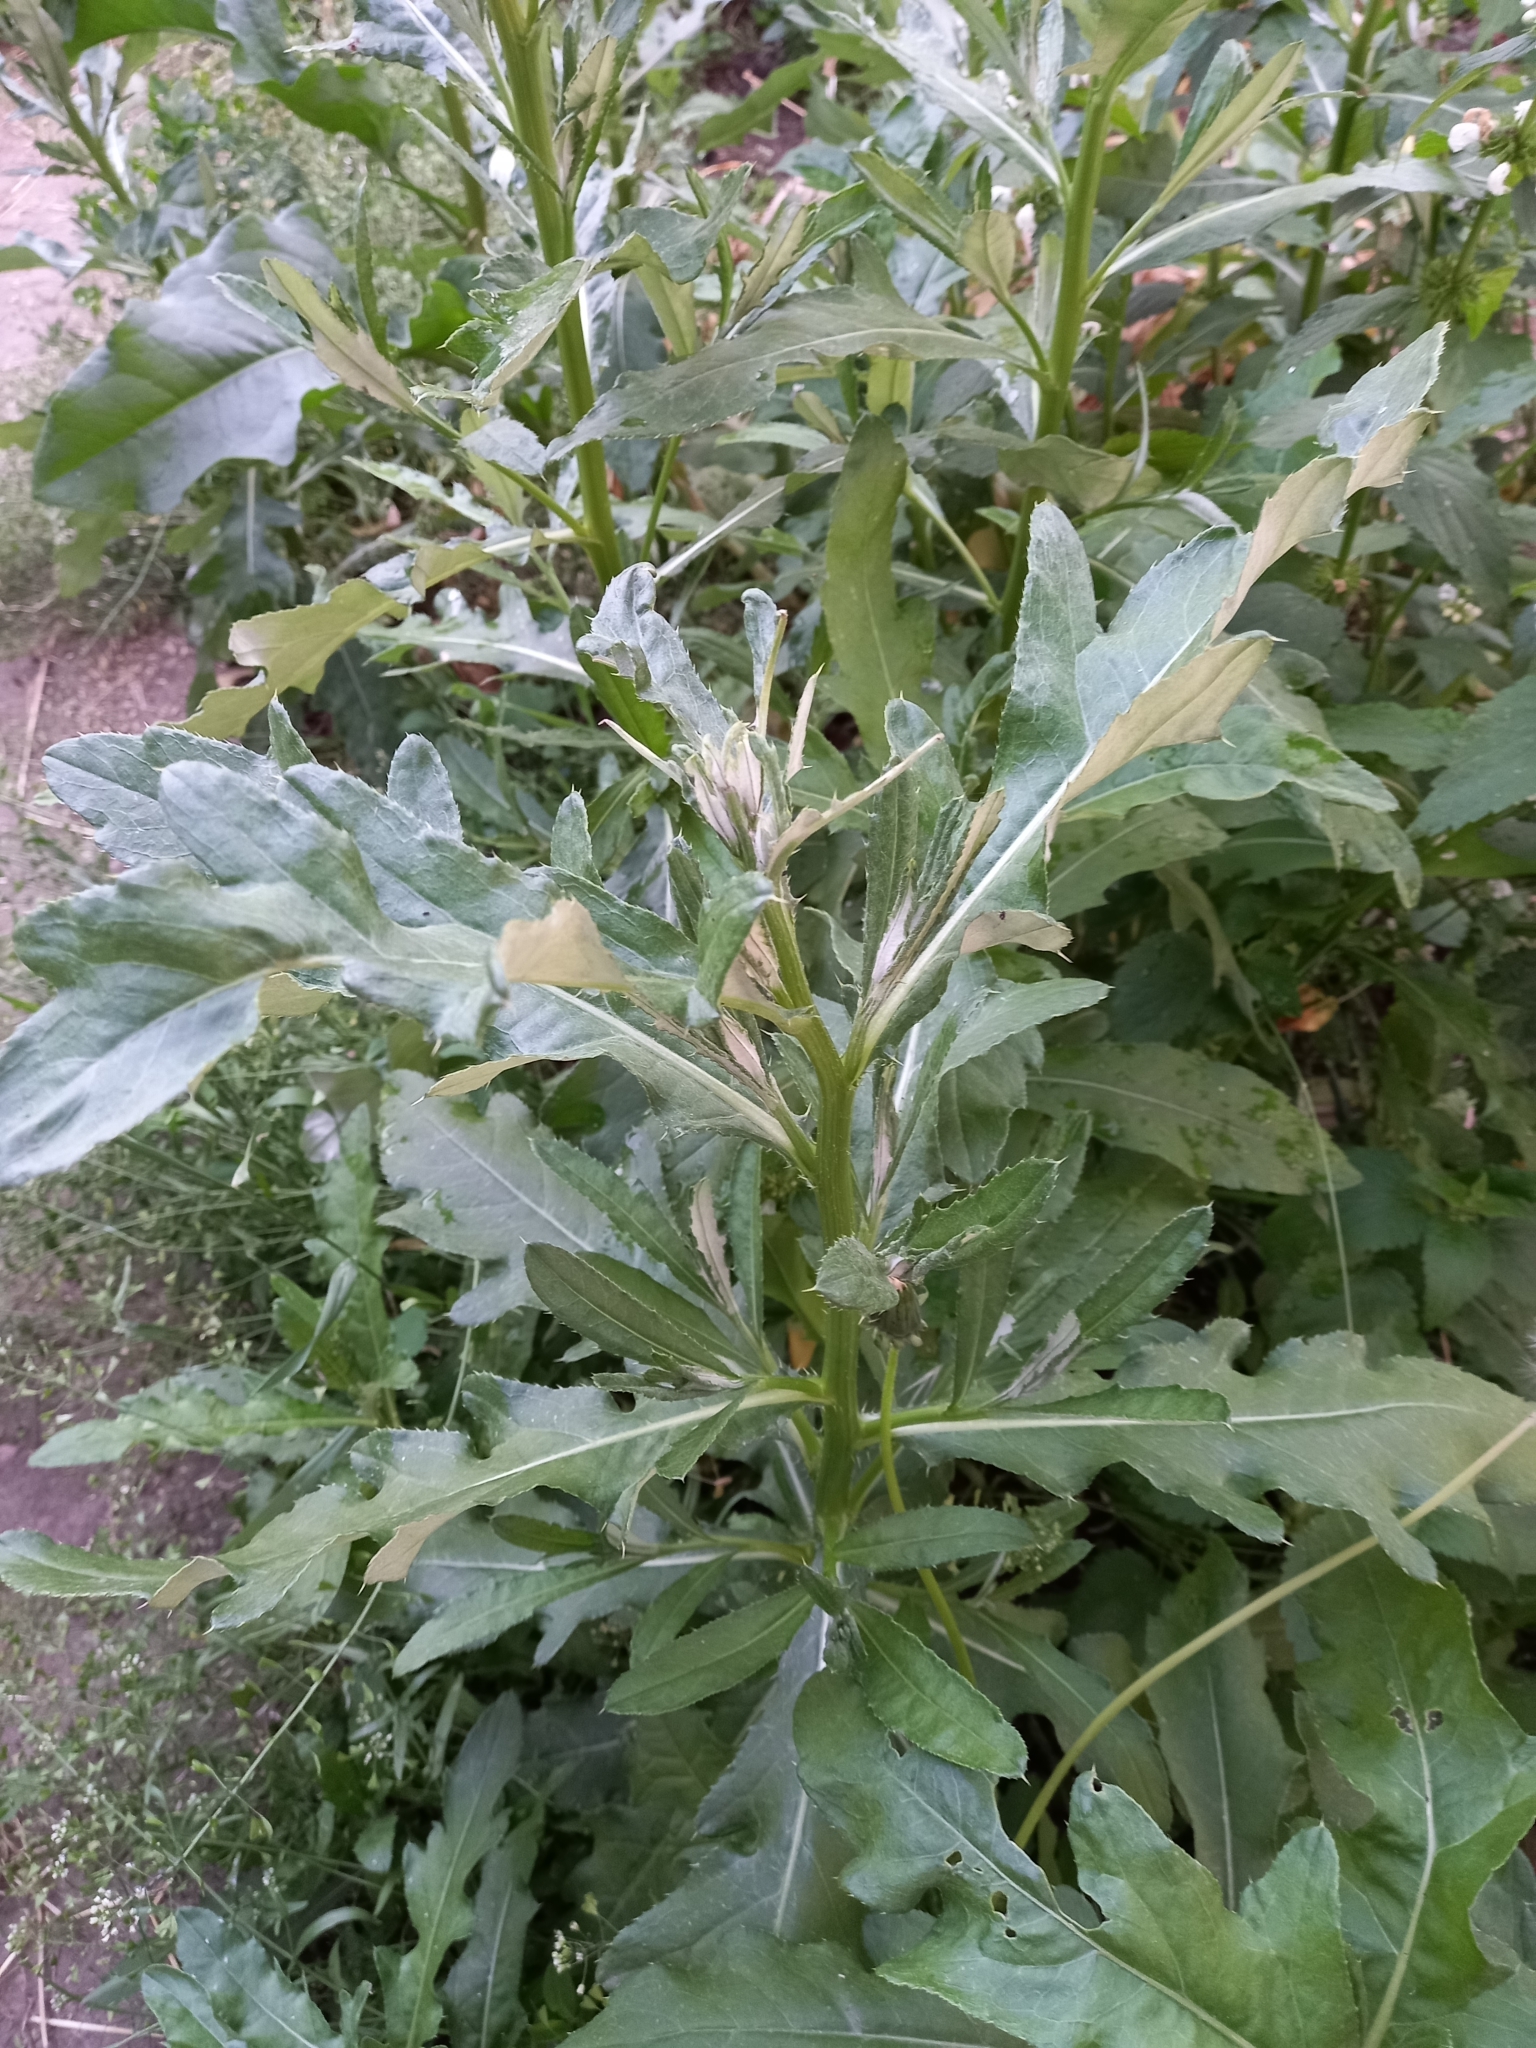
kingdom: Plantae
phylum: Tracheophyta
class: Magnoliopsida
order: Asterales
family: Asteraceae
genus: Cirsium
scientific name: Cirsium arvense
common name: Creeping thistle
